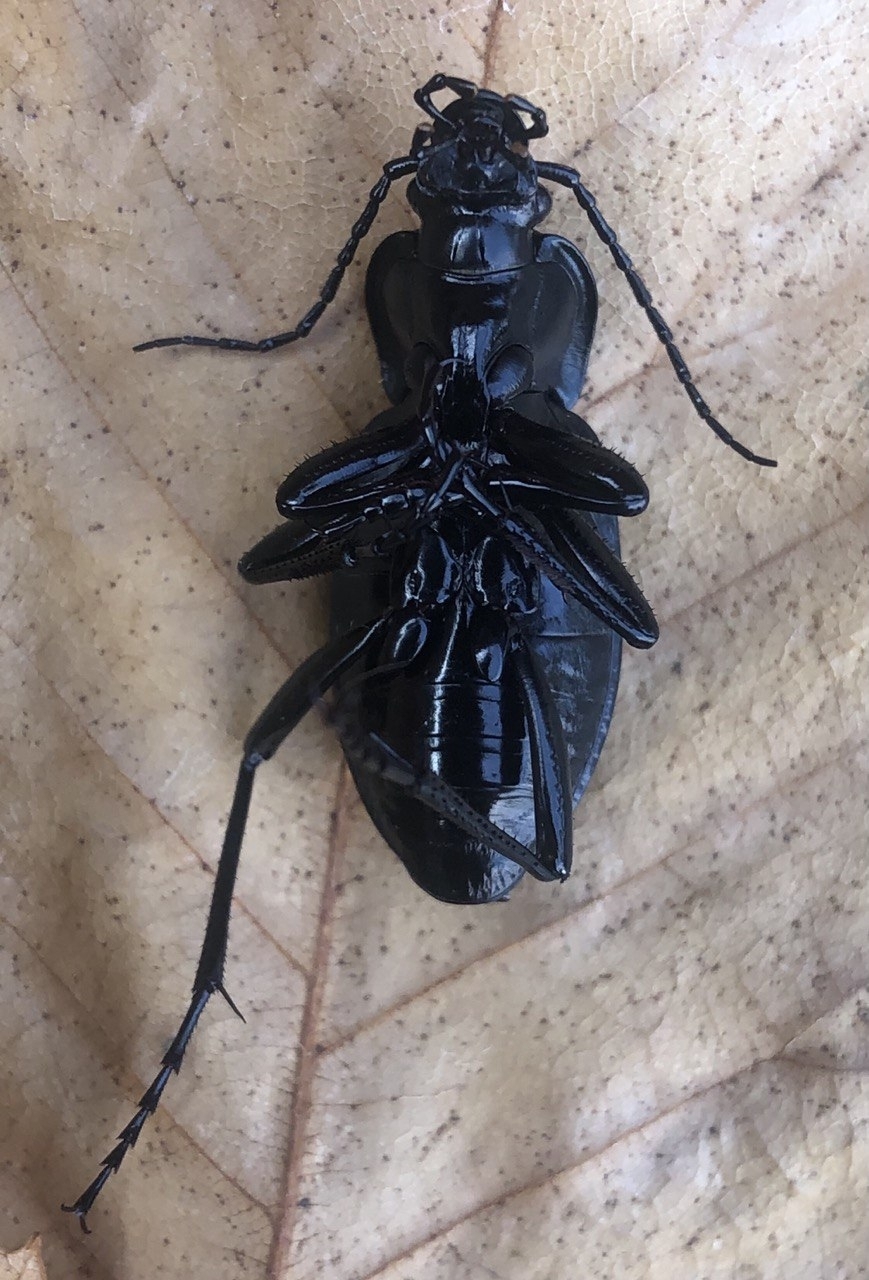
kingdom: Animalia
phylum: Arthropoda
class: Insecta
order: Coleoptera
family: Carabidae
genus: Carabus
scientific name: Carabus glabratus
